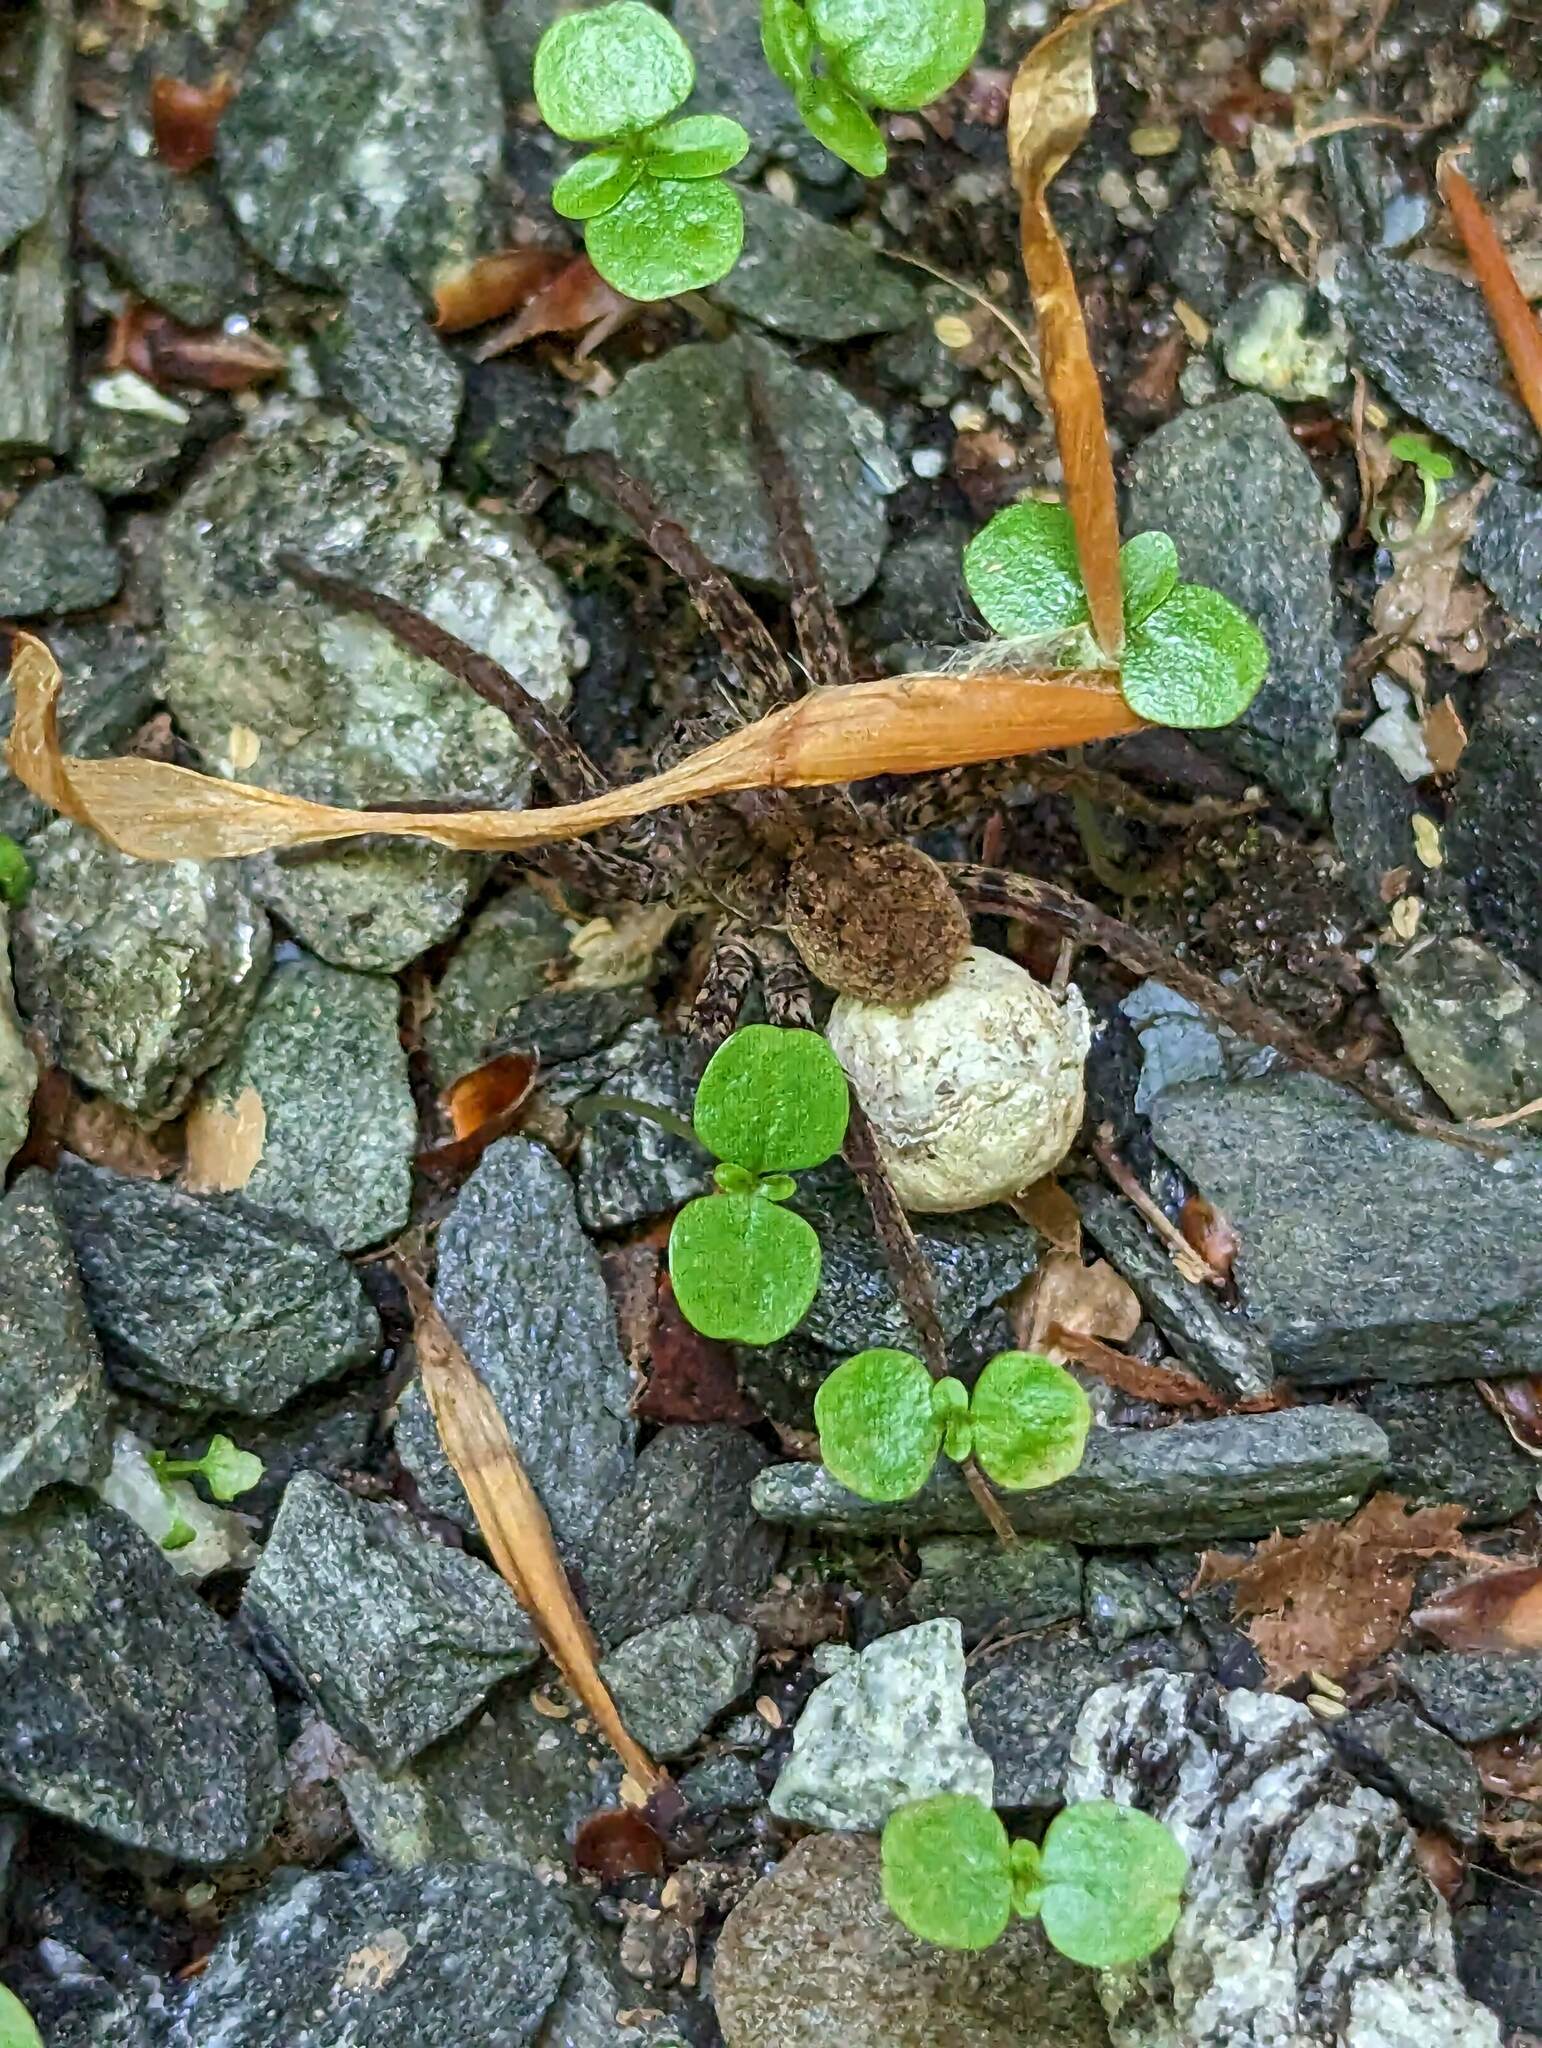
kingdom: Animalia
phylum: Arthropoda
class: Arachnida
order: Araneae
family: Lycosidae
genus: Gladicosa
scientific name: Gladicosa gulosa
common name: Drumming sword wolf spider
